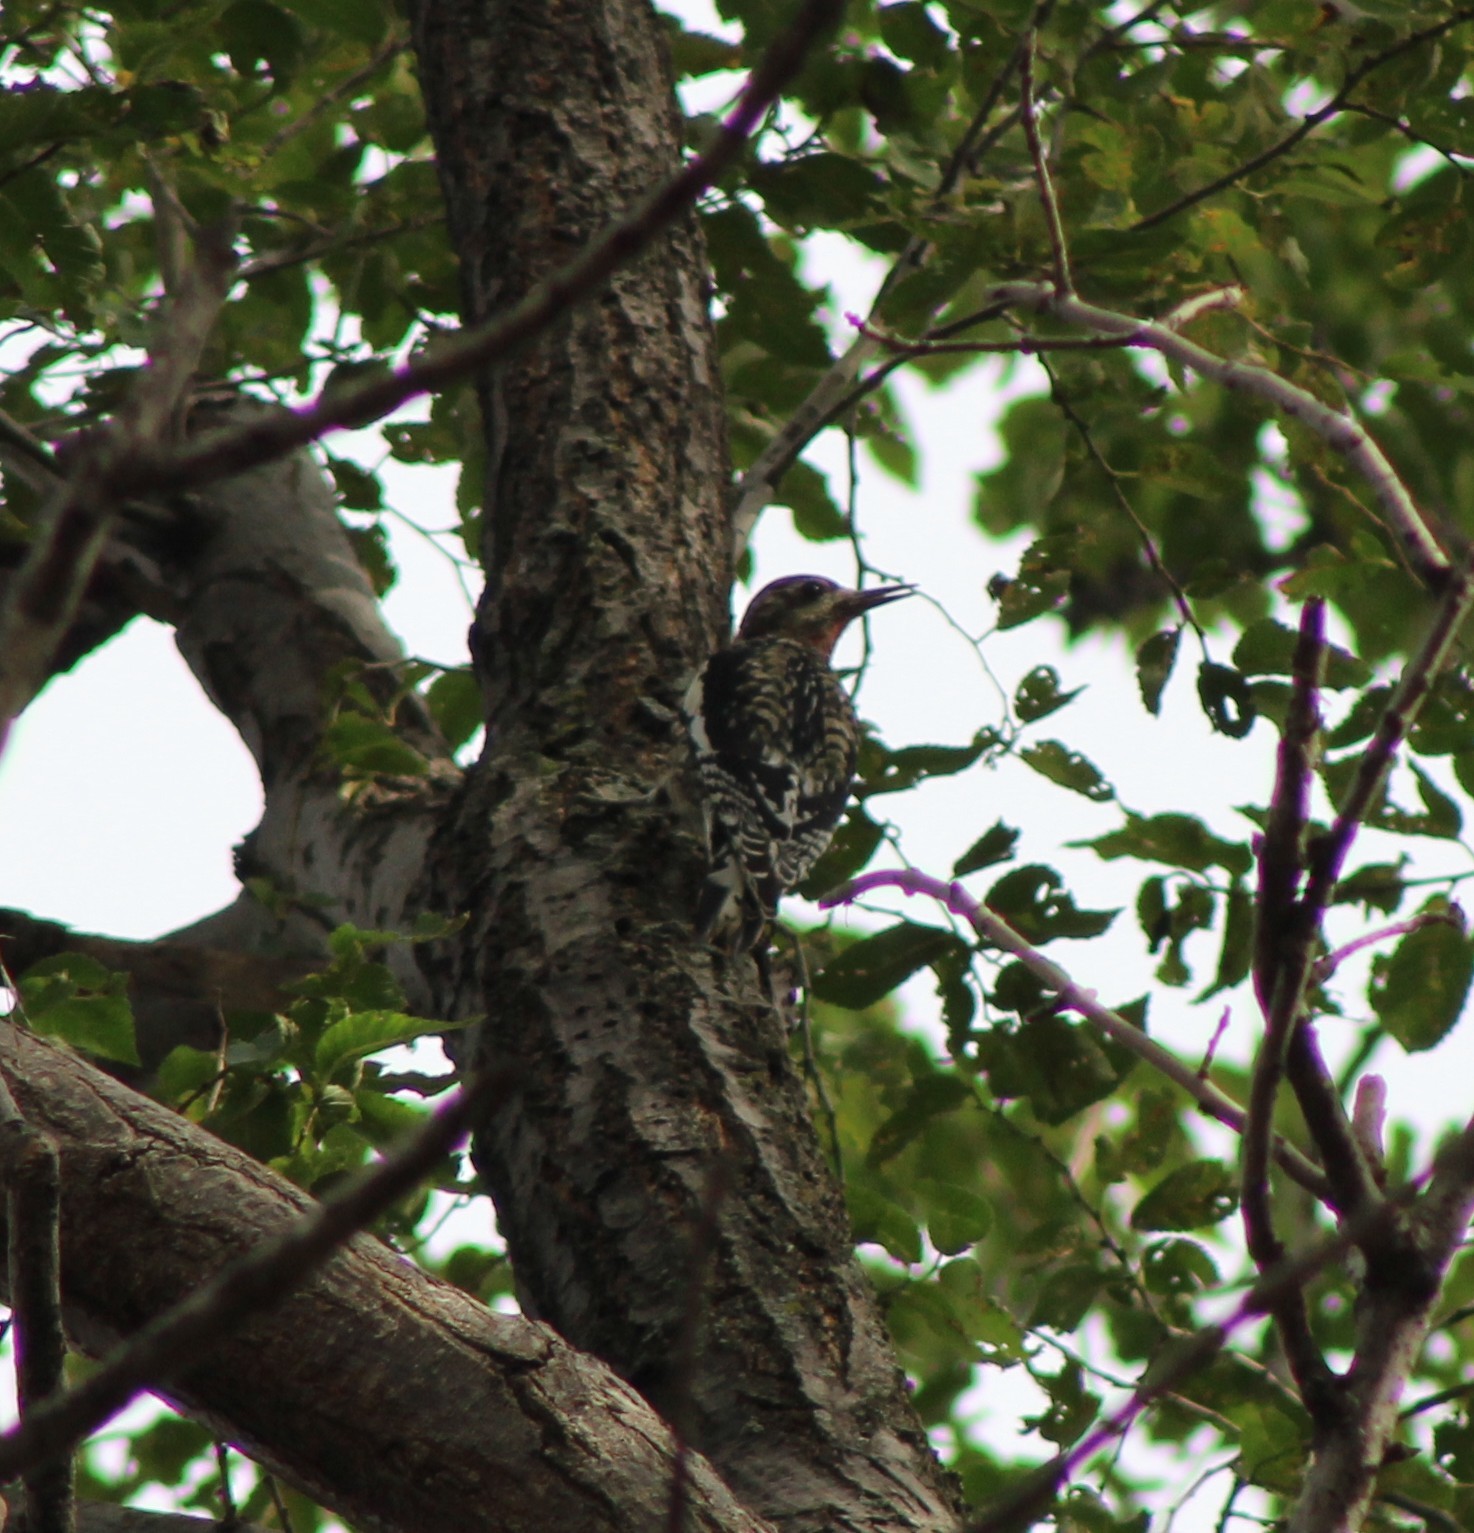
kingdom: Animalia
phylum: Chordata
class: Aves
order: Piciformes
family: Picidae
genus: Sphyrapicus
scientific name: Sphyrapicus varius
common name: Yellow-bellied sapsucker
